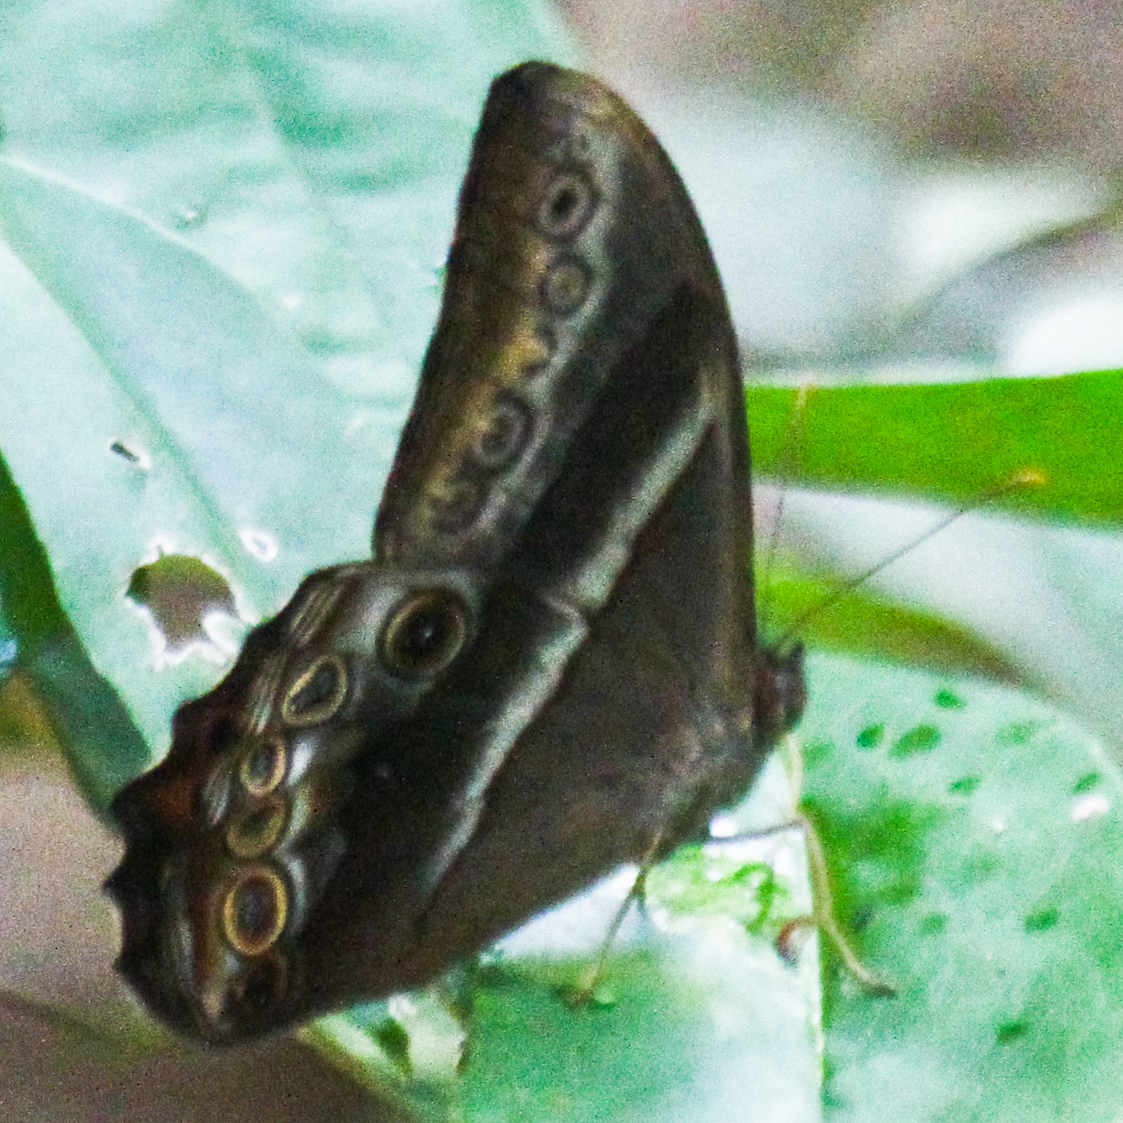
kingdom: Animalia
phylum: Arthropoda
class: Insecta
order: Lepidoptera
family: Nymphalidae
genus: Lethe
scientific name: Lethe mekara
